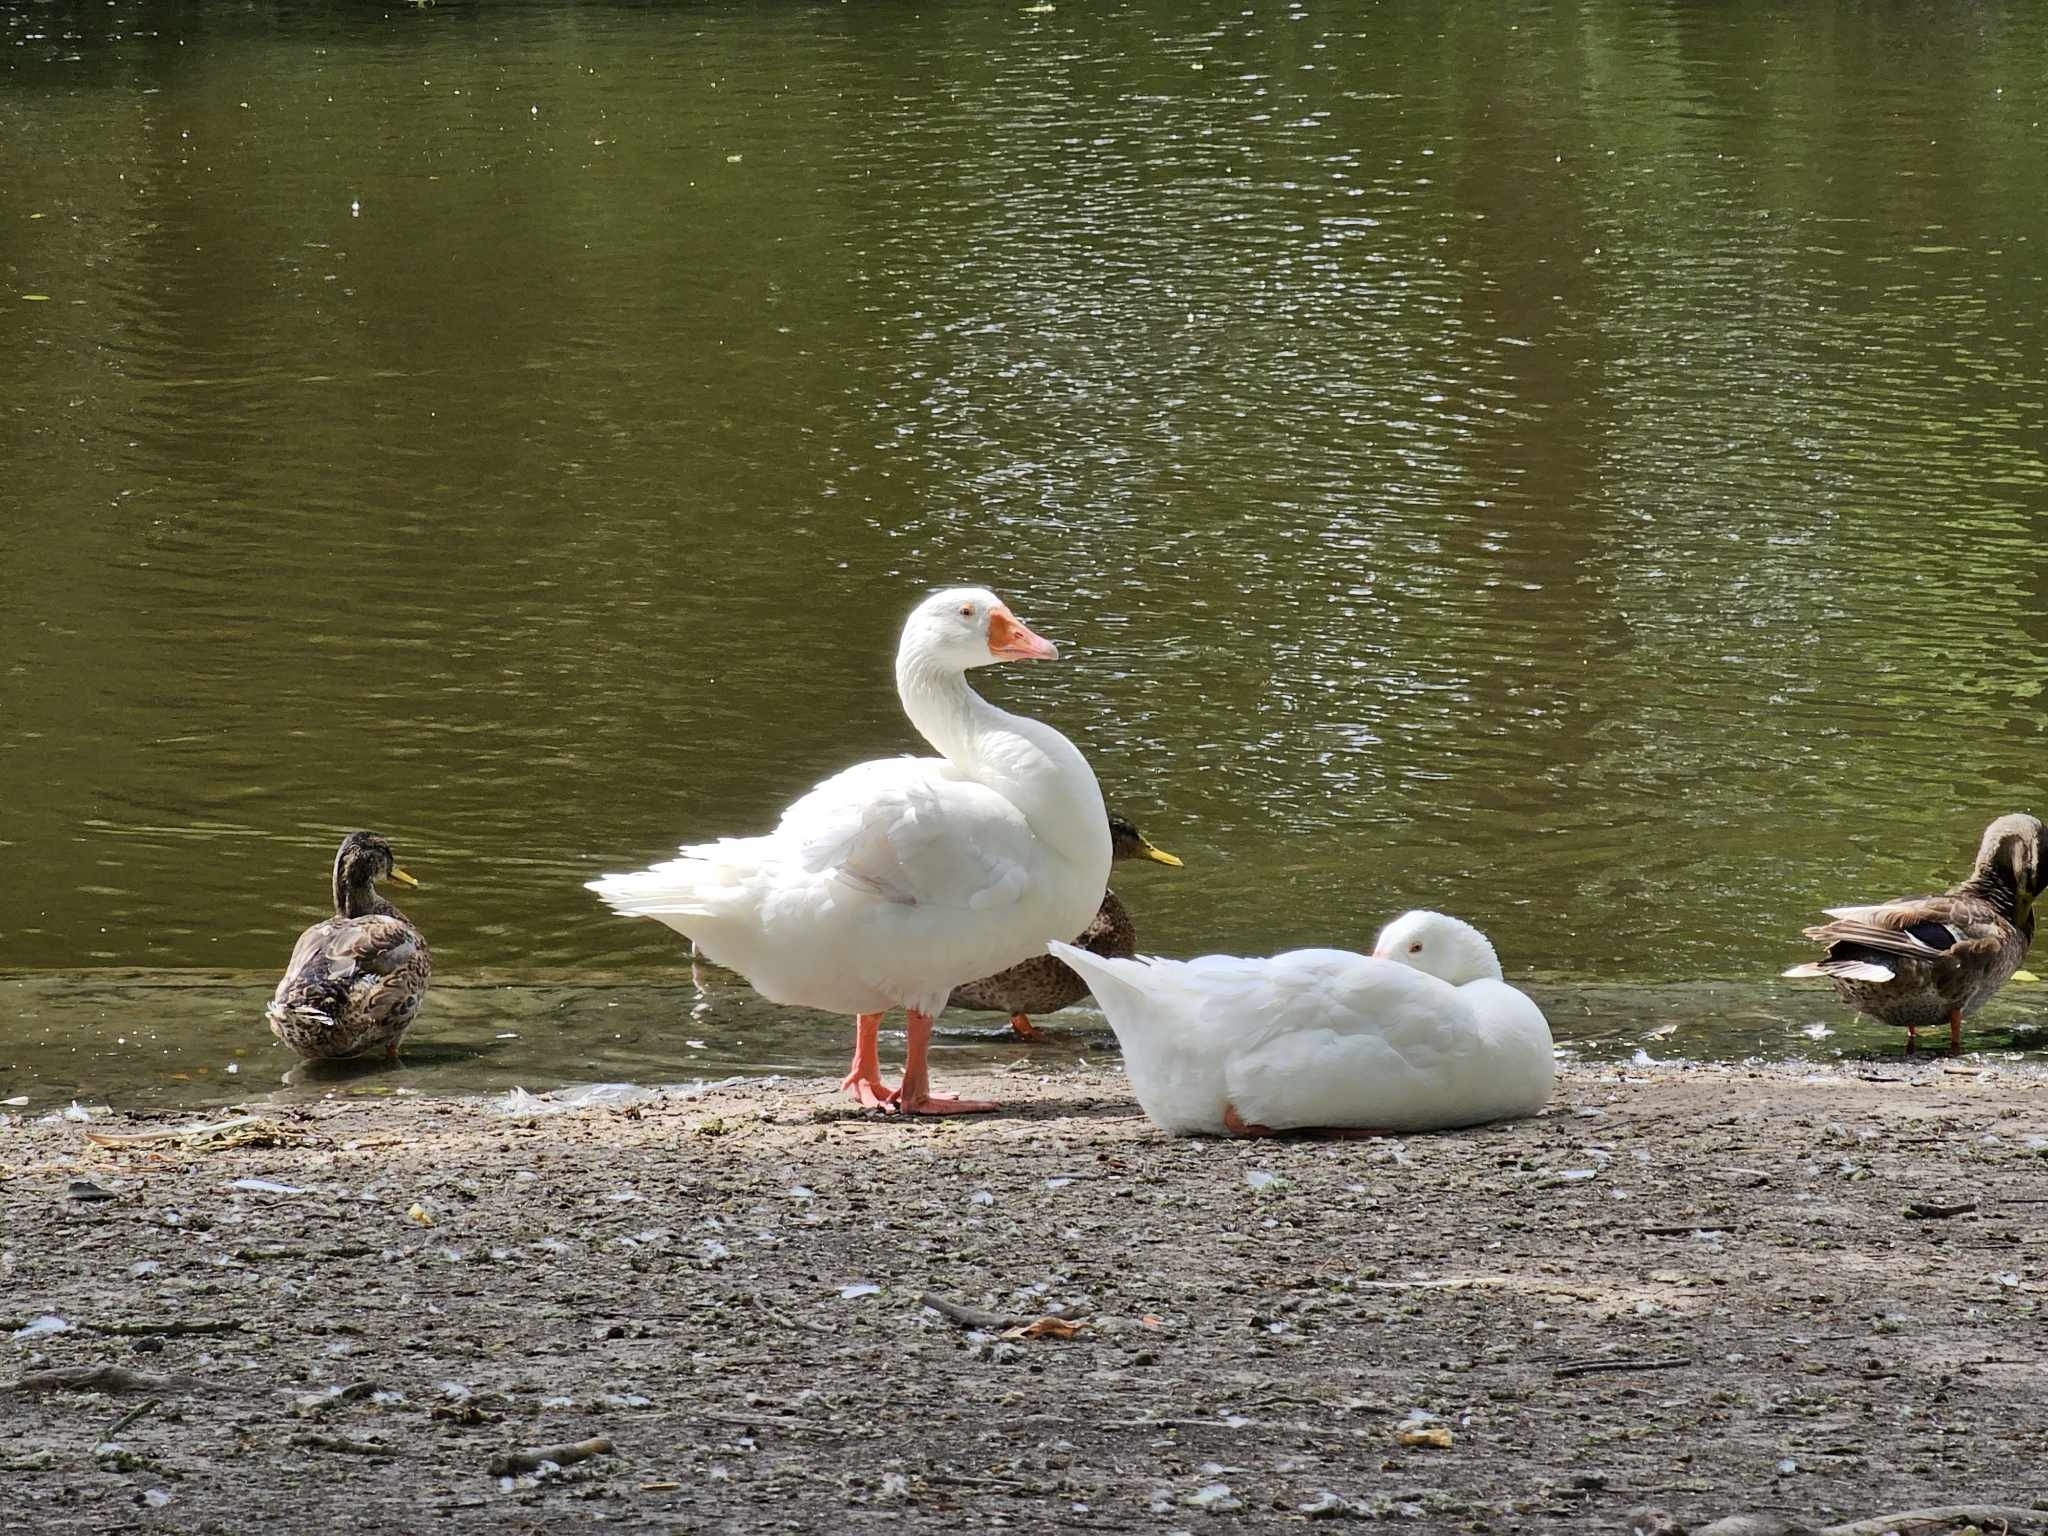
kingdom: Animalia
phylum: Chordata
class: Aves
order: Anseriformes
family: Anatidae
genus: Anser
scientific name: Anser anser
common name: Greylag goose
